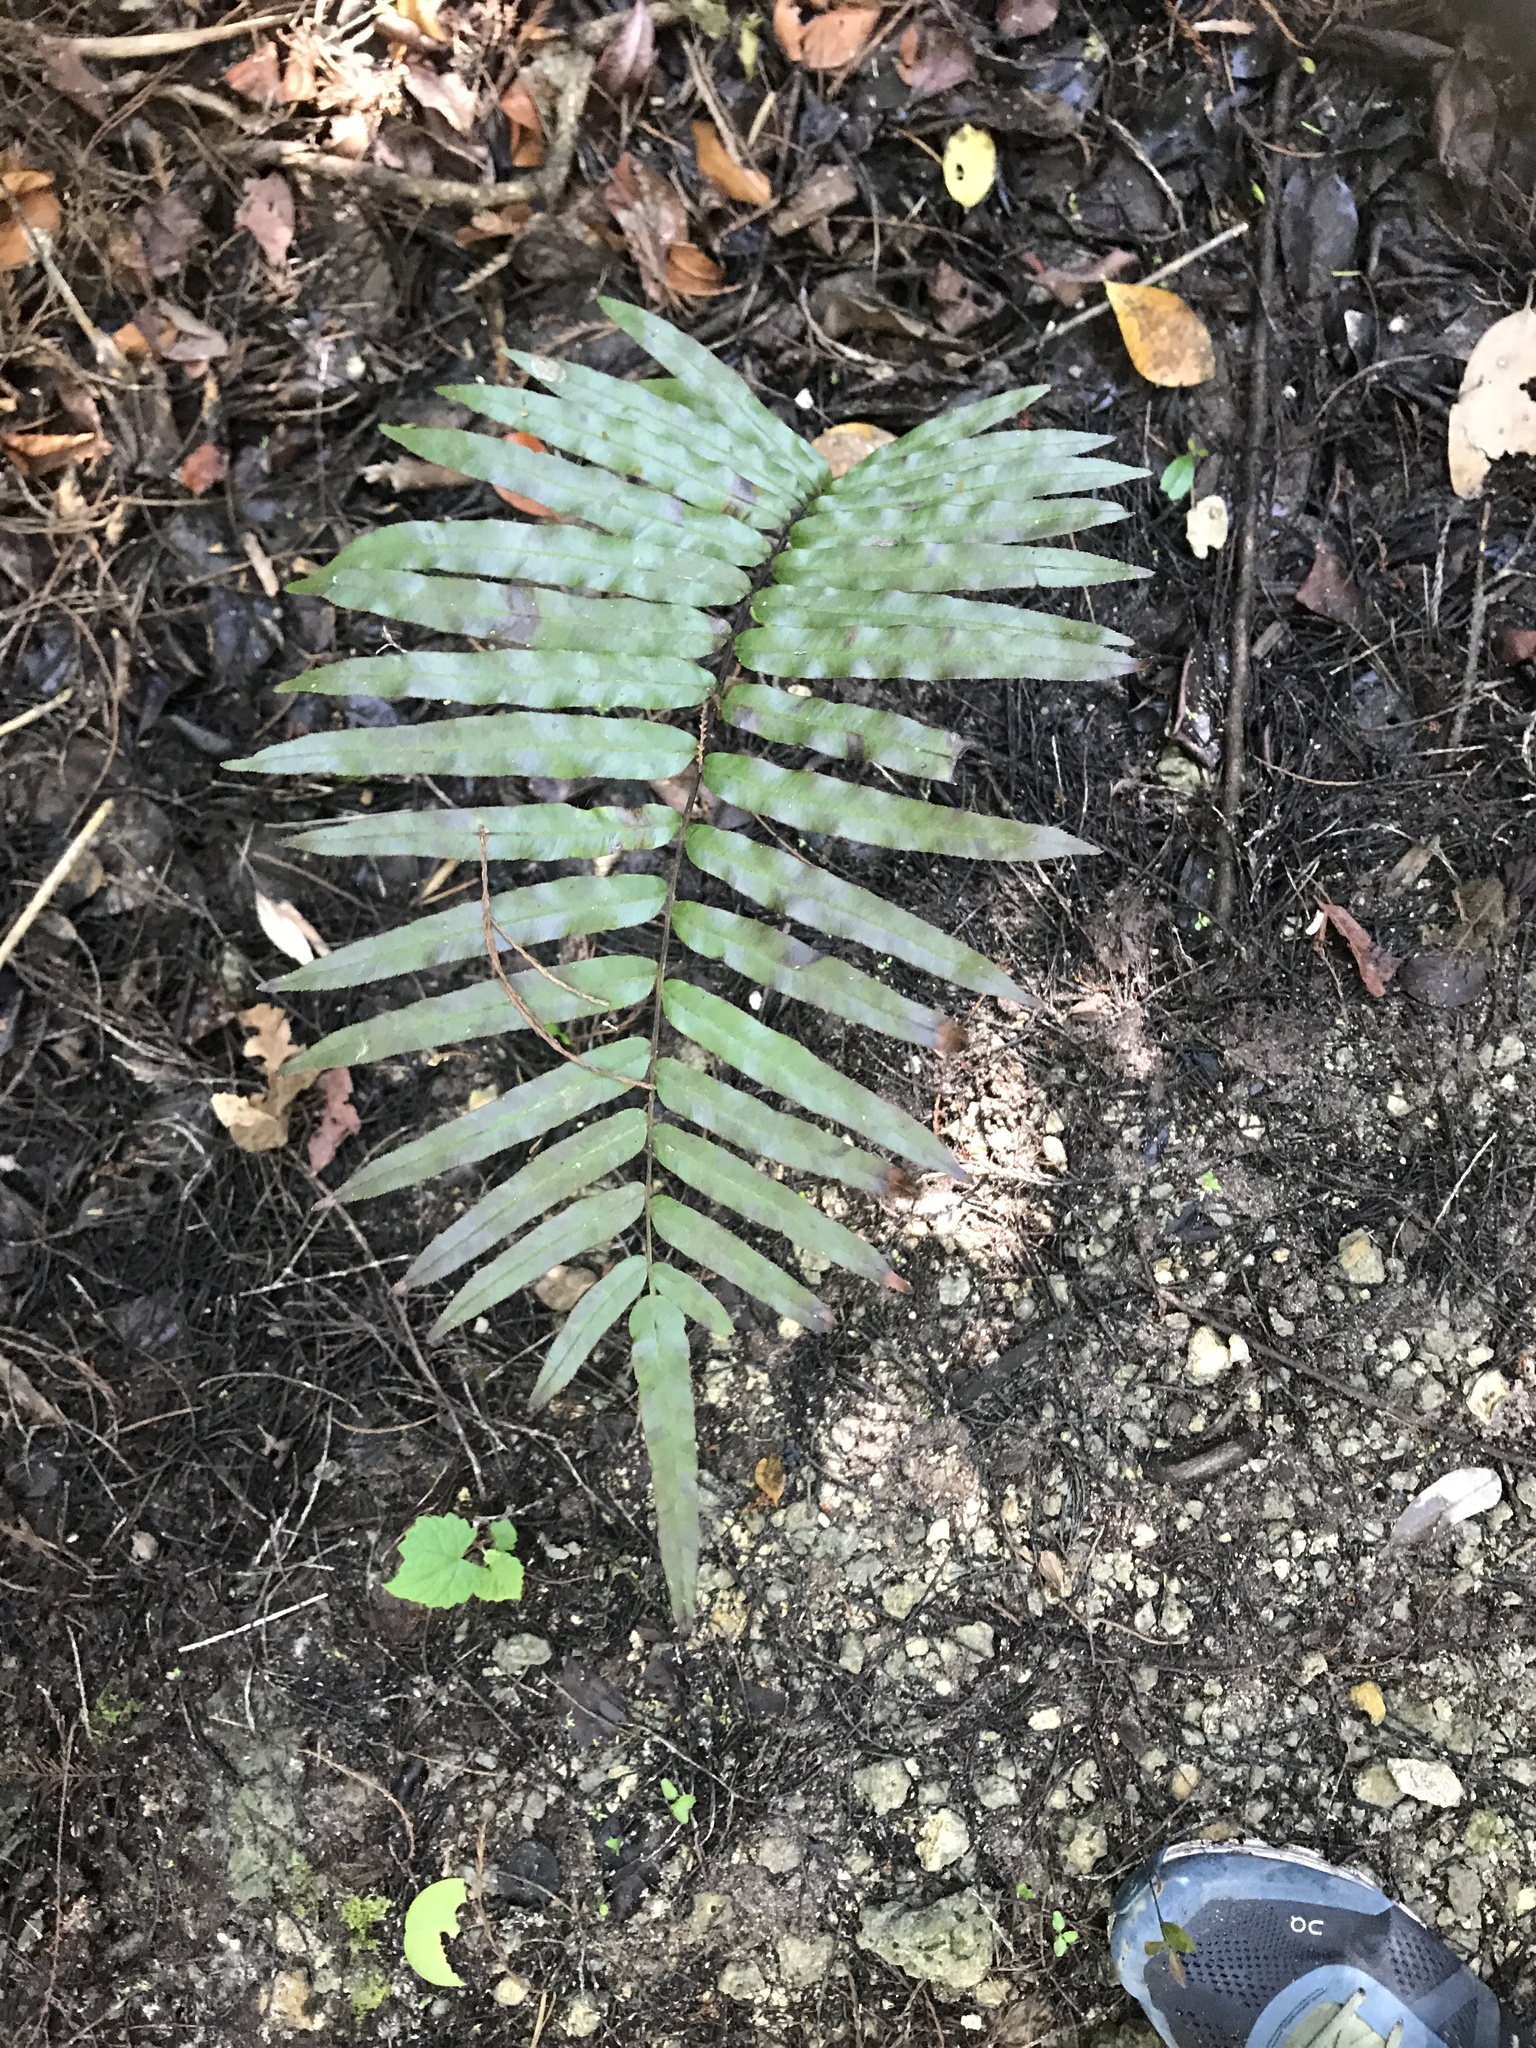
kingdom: Plantae
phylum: Tracheophyta
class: Polypodiopsida
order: Polypodiales
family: Blechnaceae
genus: Telmatoblechnum
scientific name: Telmatoblechnum serrulatum
